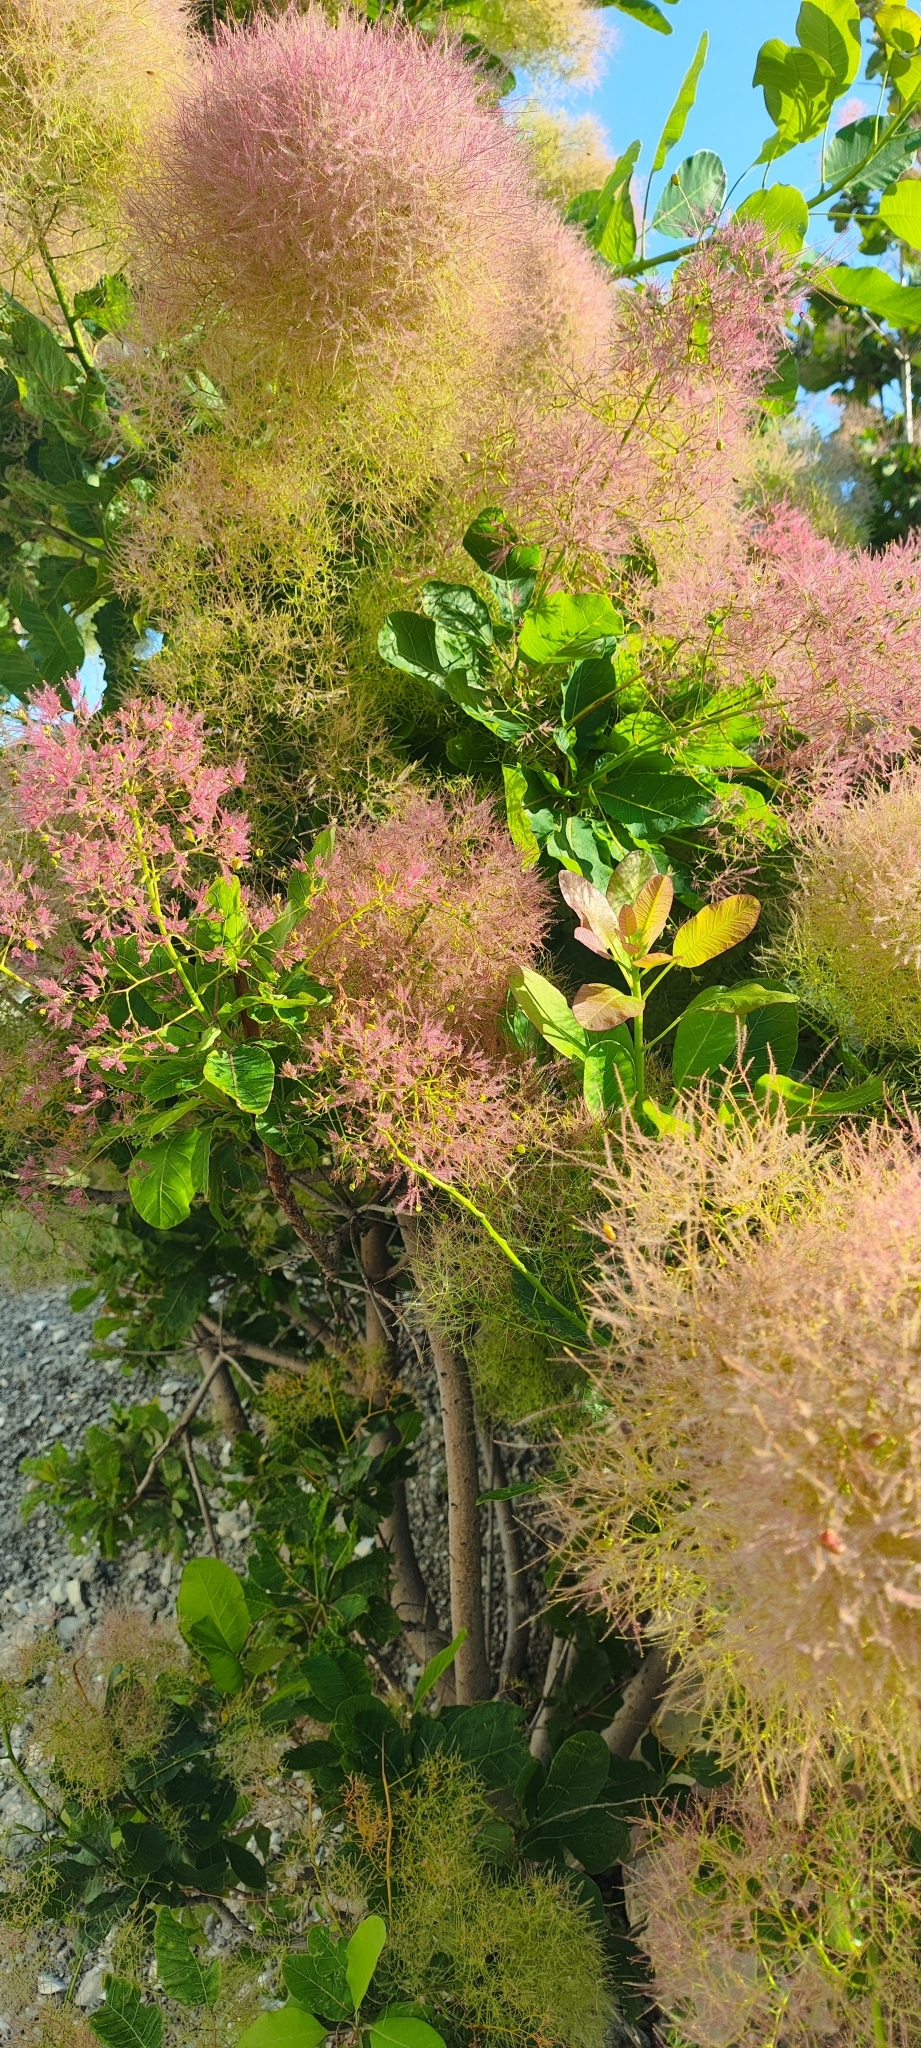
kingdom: Plantae
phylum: Tracheophyta
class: Magnoliopsida
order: Sapindales
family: Anacardiaceae
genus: Cotinus
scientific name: Cotinus coggygria
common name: Smoke-tree
